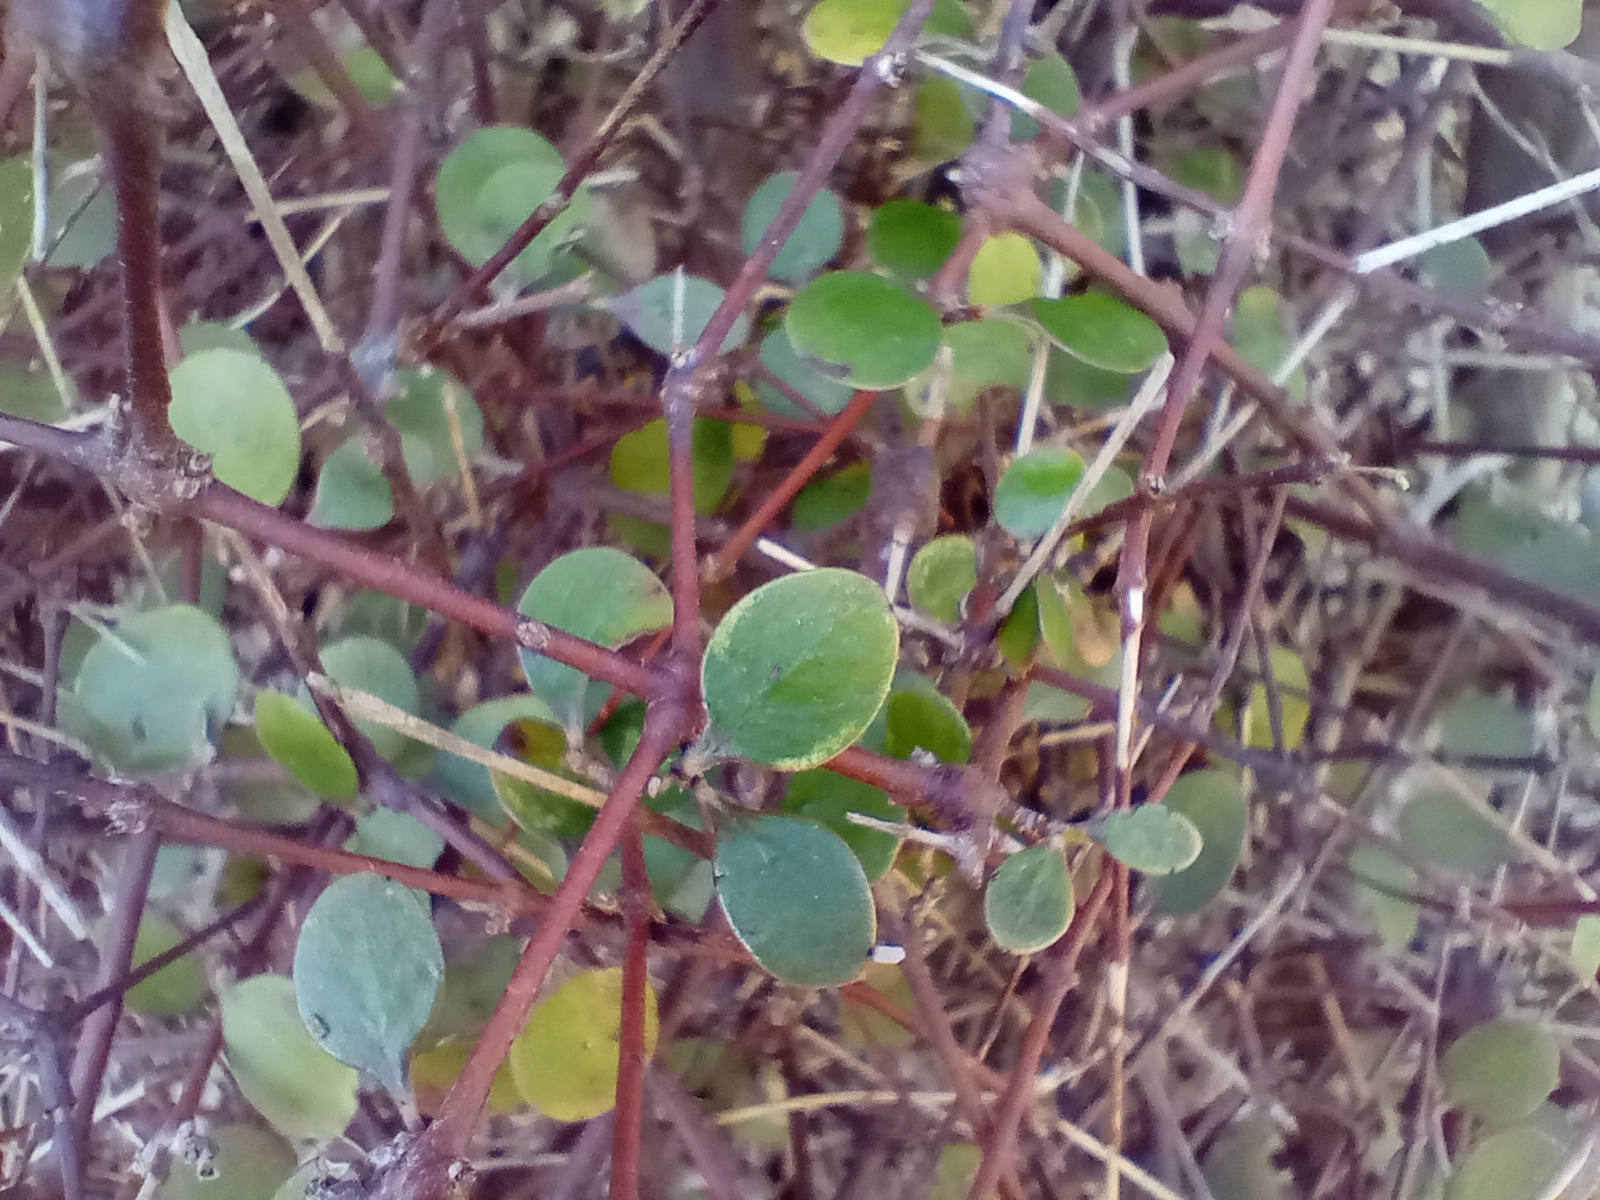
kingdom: Plantae
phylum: Tracheophyta
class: Magnoliopsida
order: Gentianales
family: Rubiaceae
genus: Coprosma
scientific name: Coprosma crassifolia
